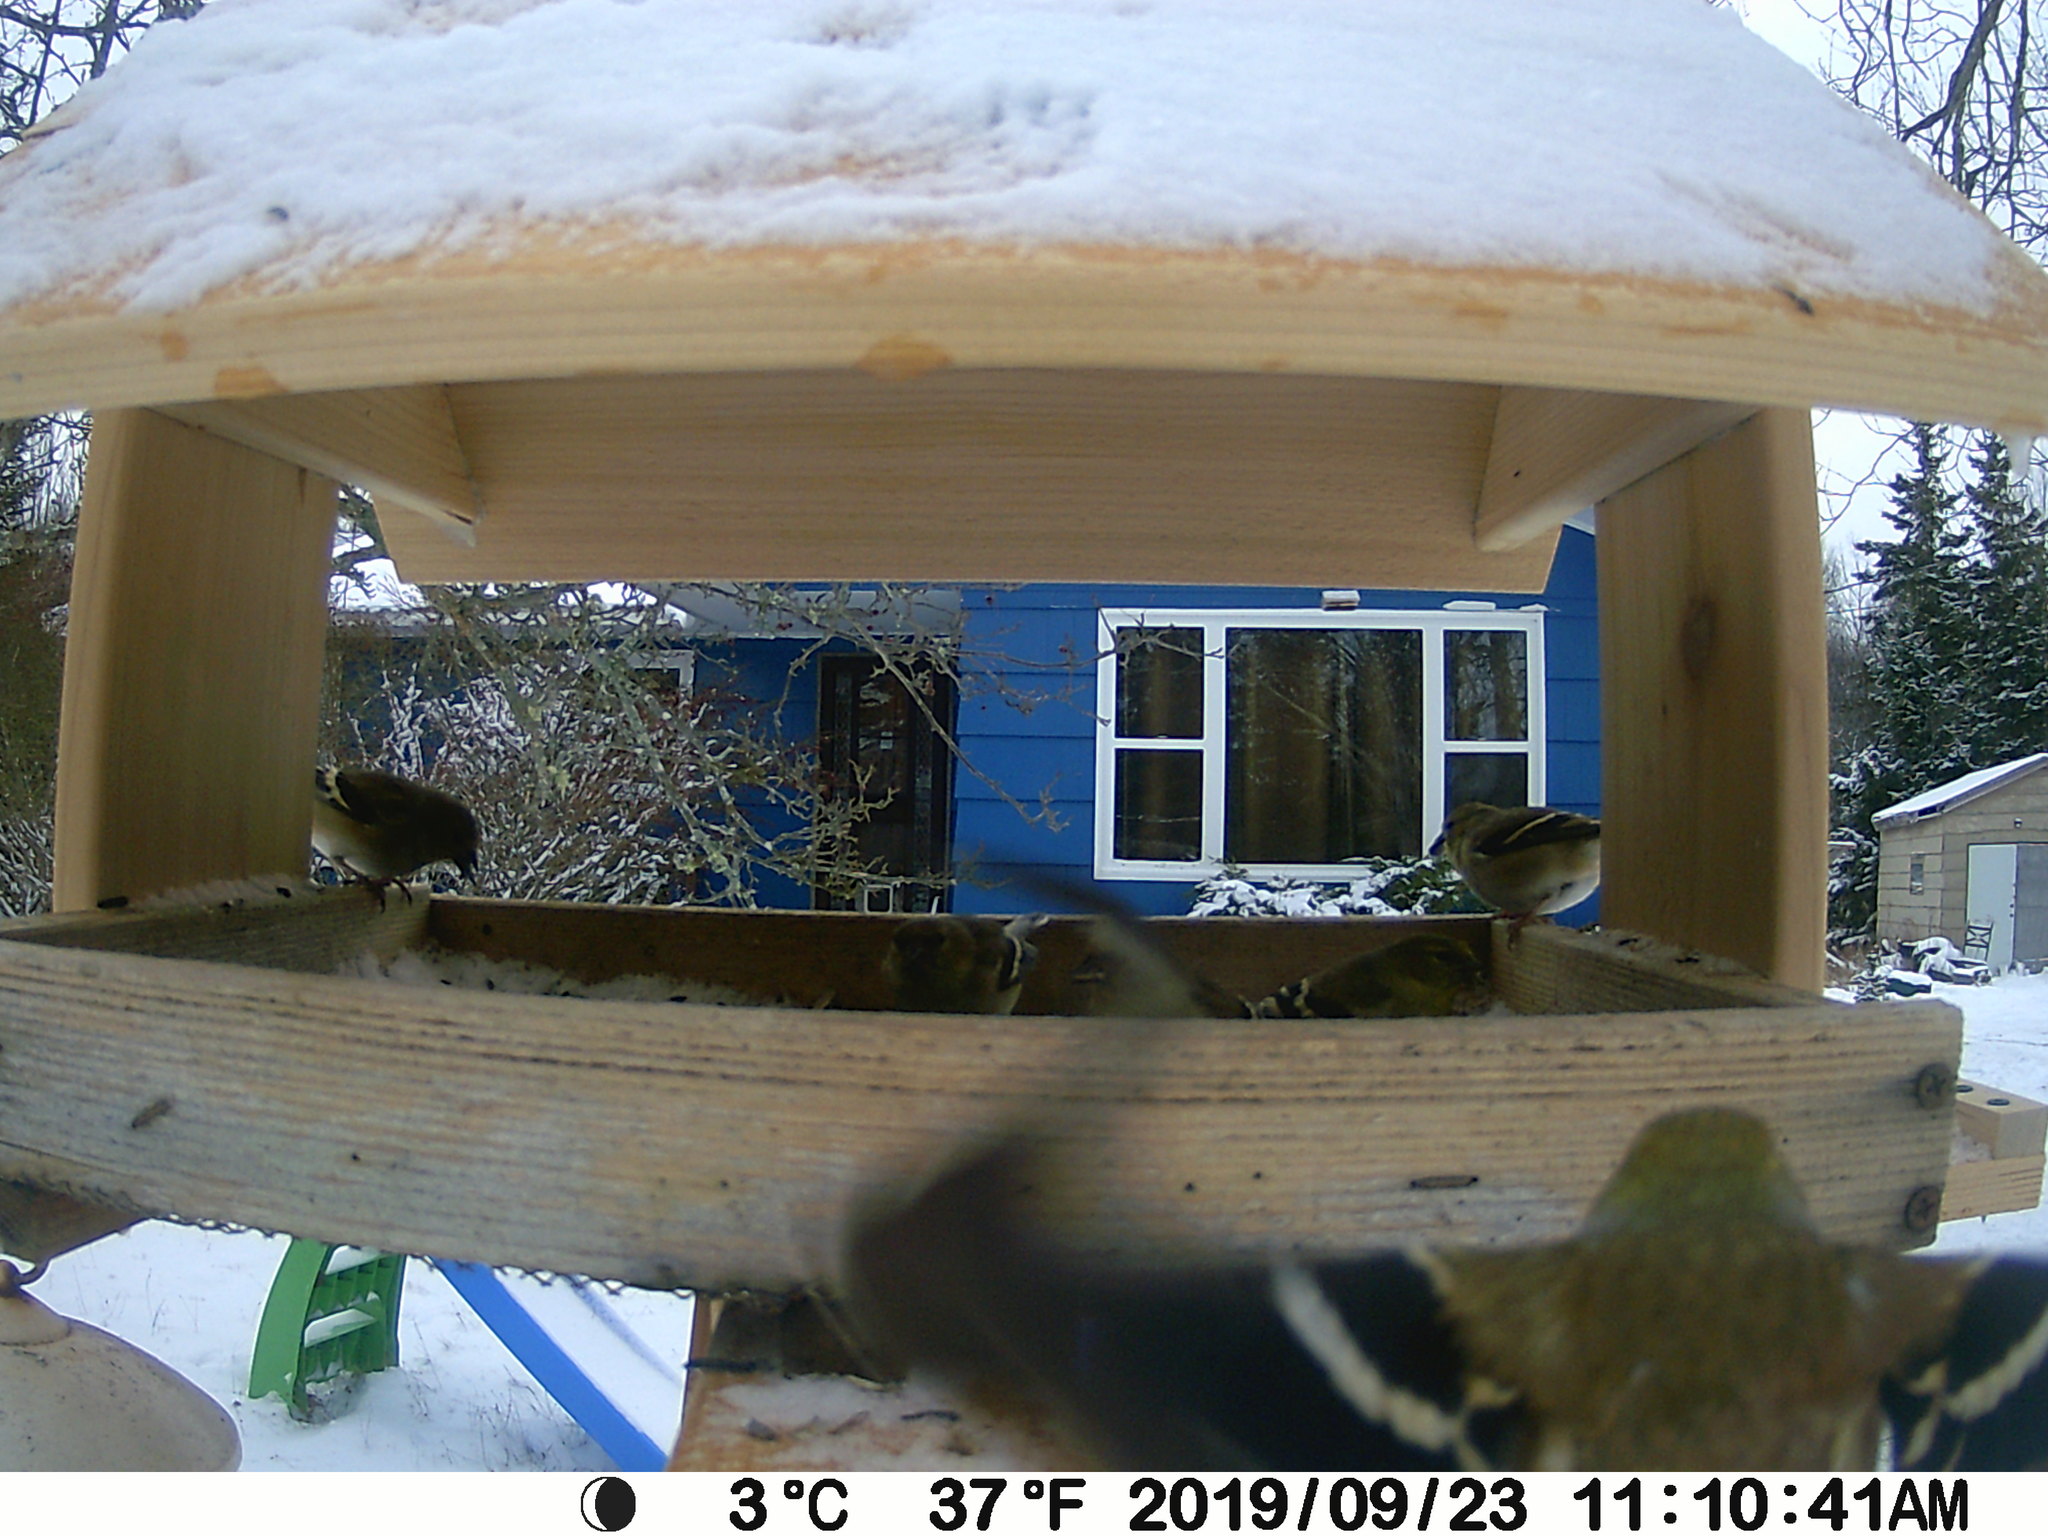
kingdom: Animalia
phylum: Chordata
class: Aves
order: Passeriformes
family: Fringillidae
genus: Spinus
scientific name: Spinus tristis
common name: American goldfinch
